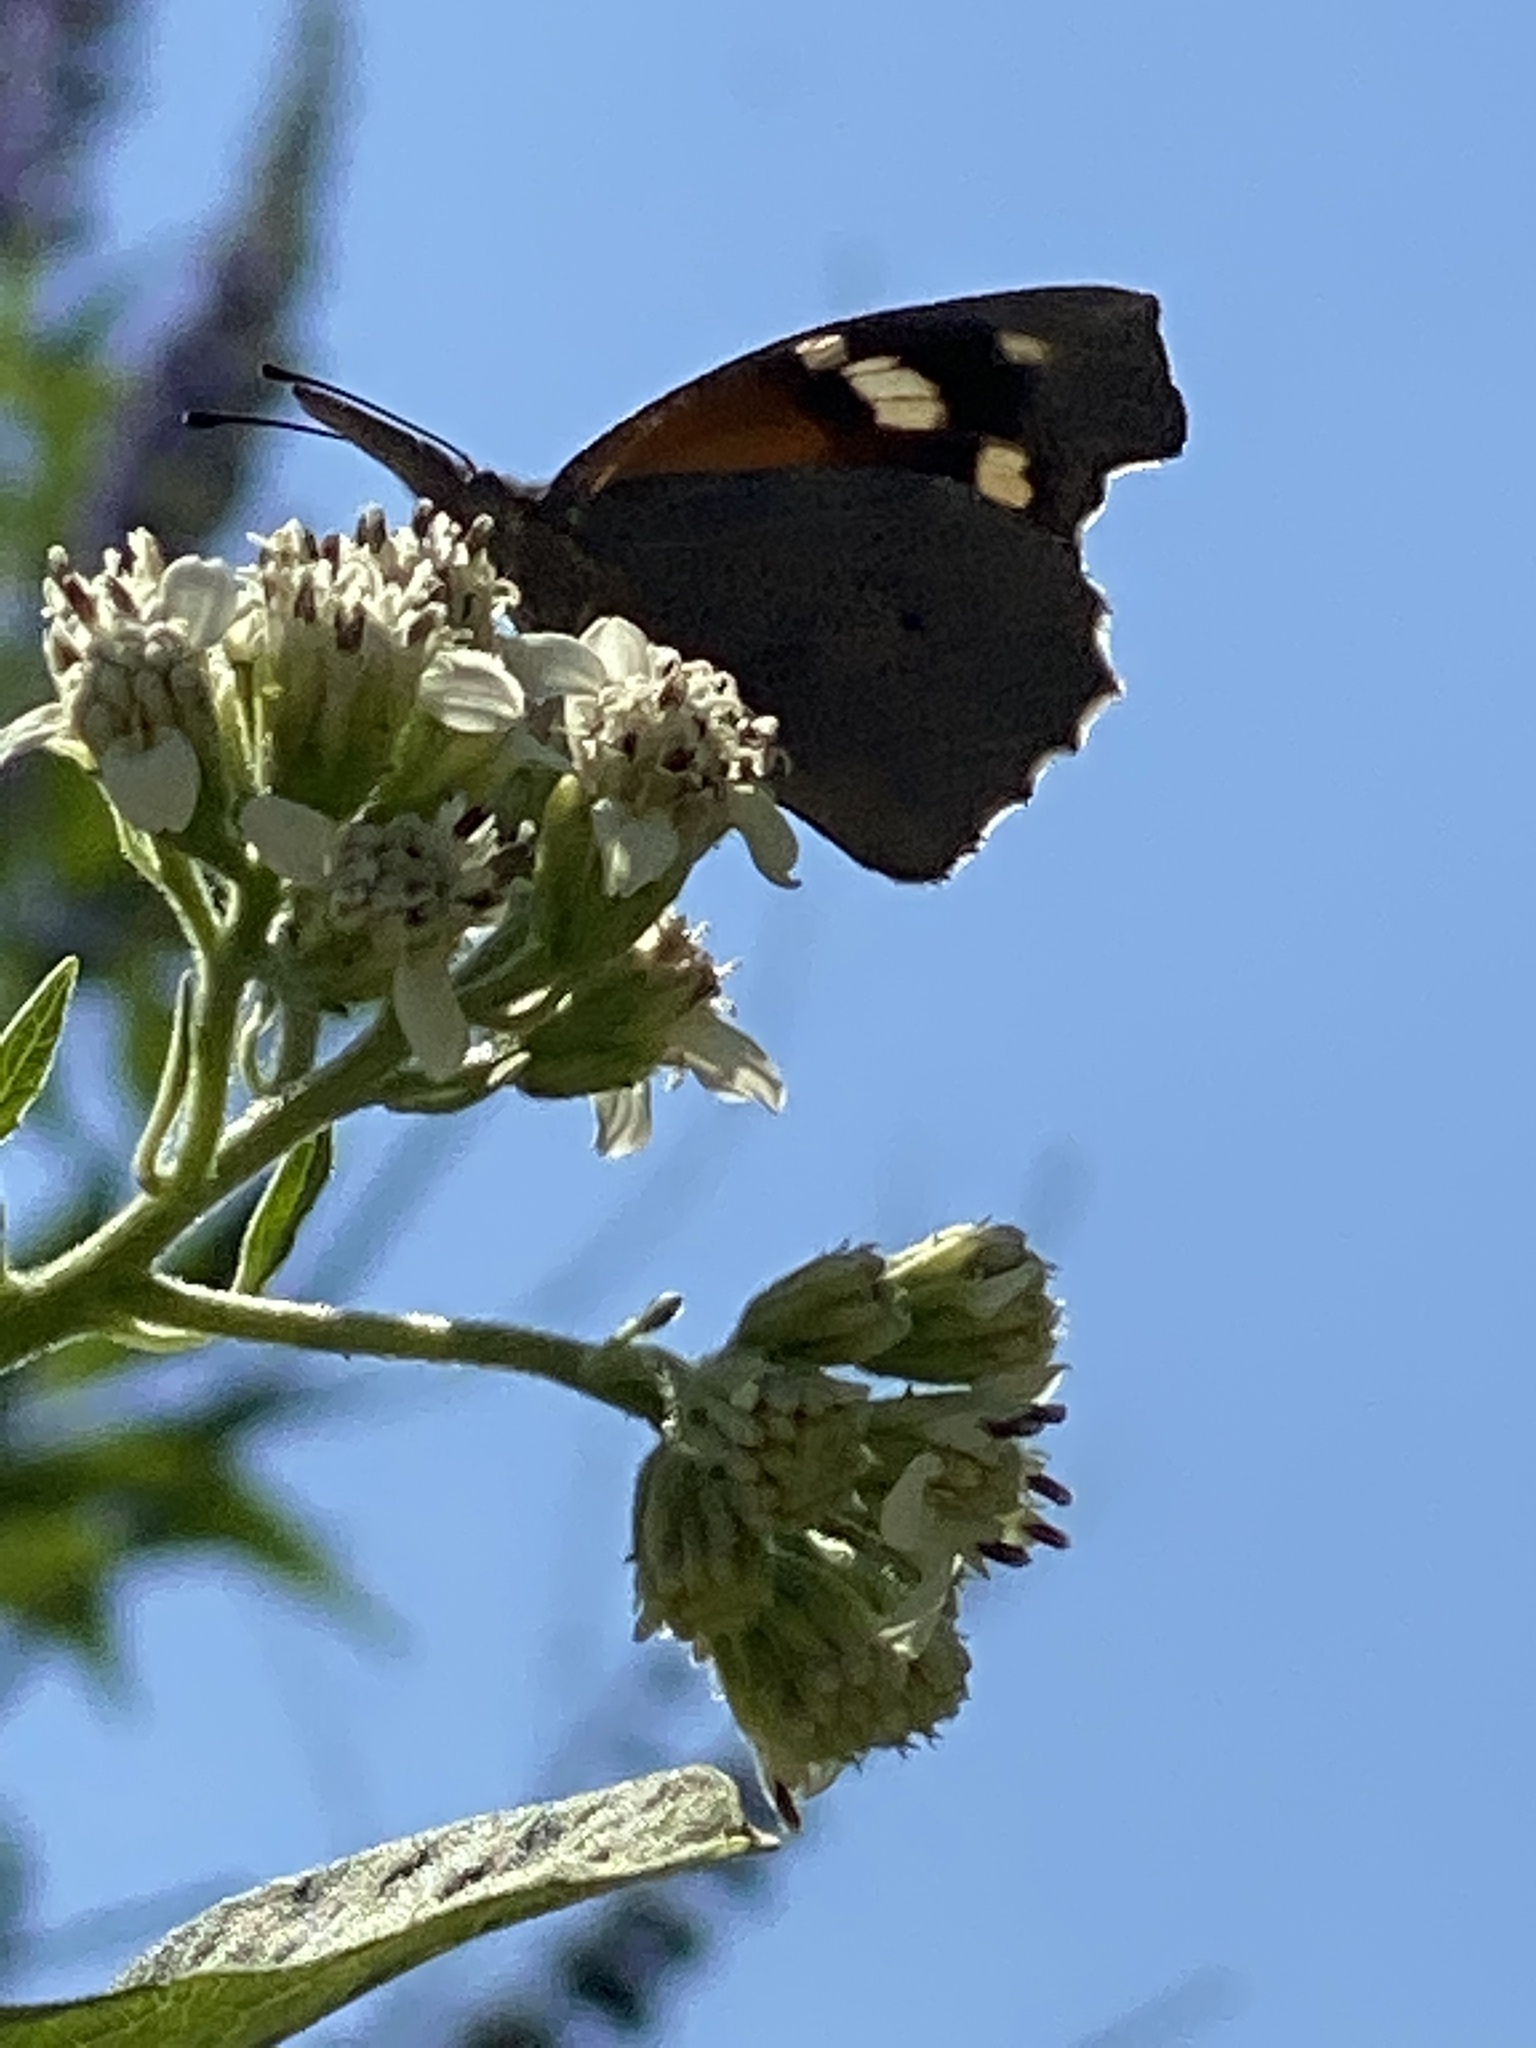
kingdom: Animalia
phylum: Arthropoda
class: Insecta
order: Lepidoptera
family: Nymphalidae
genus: Libytheana
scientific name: Libytheana carinenta
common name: American snout
